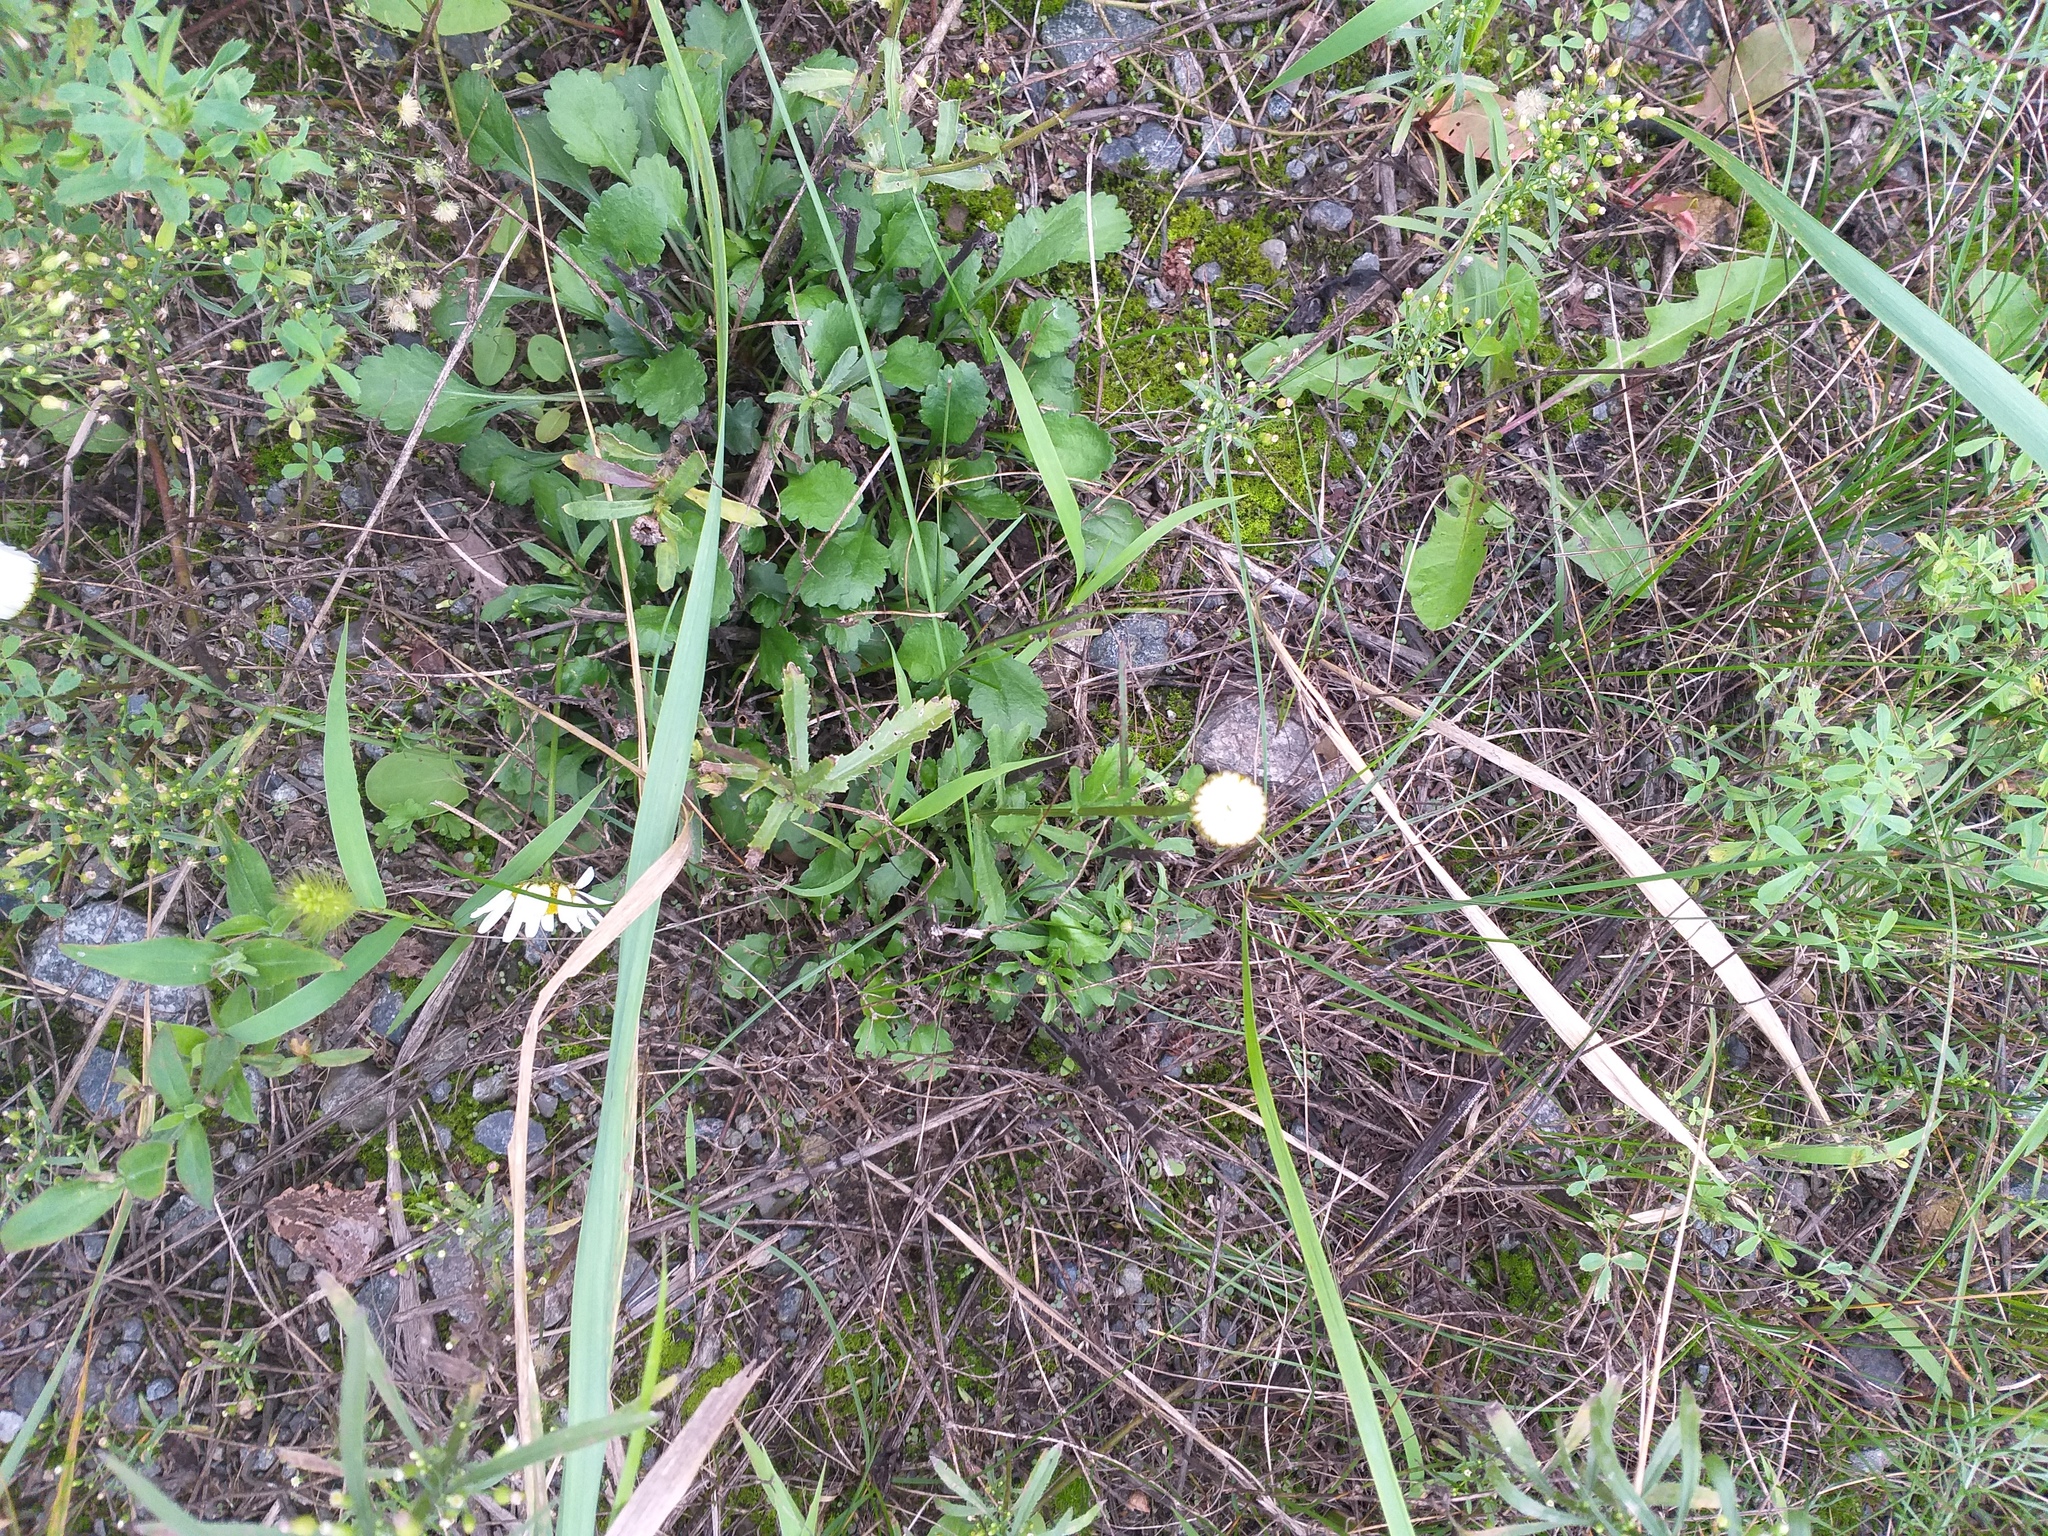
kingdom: Plantae
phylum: Tracheophyta
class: Magnoliopsida
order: Asterales
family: Asteraceae
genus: Leucanthemum
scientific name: Leucanthemum vulgare
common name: Oxeye daisy
